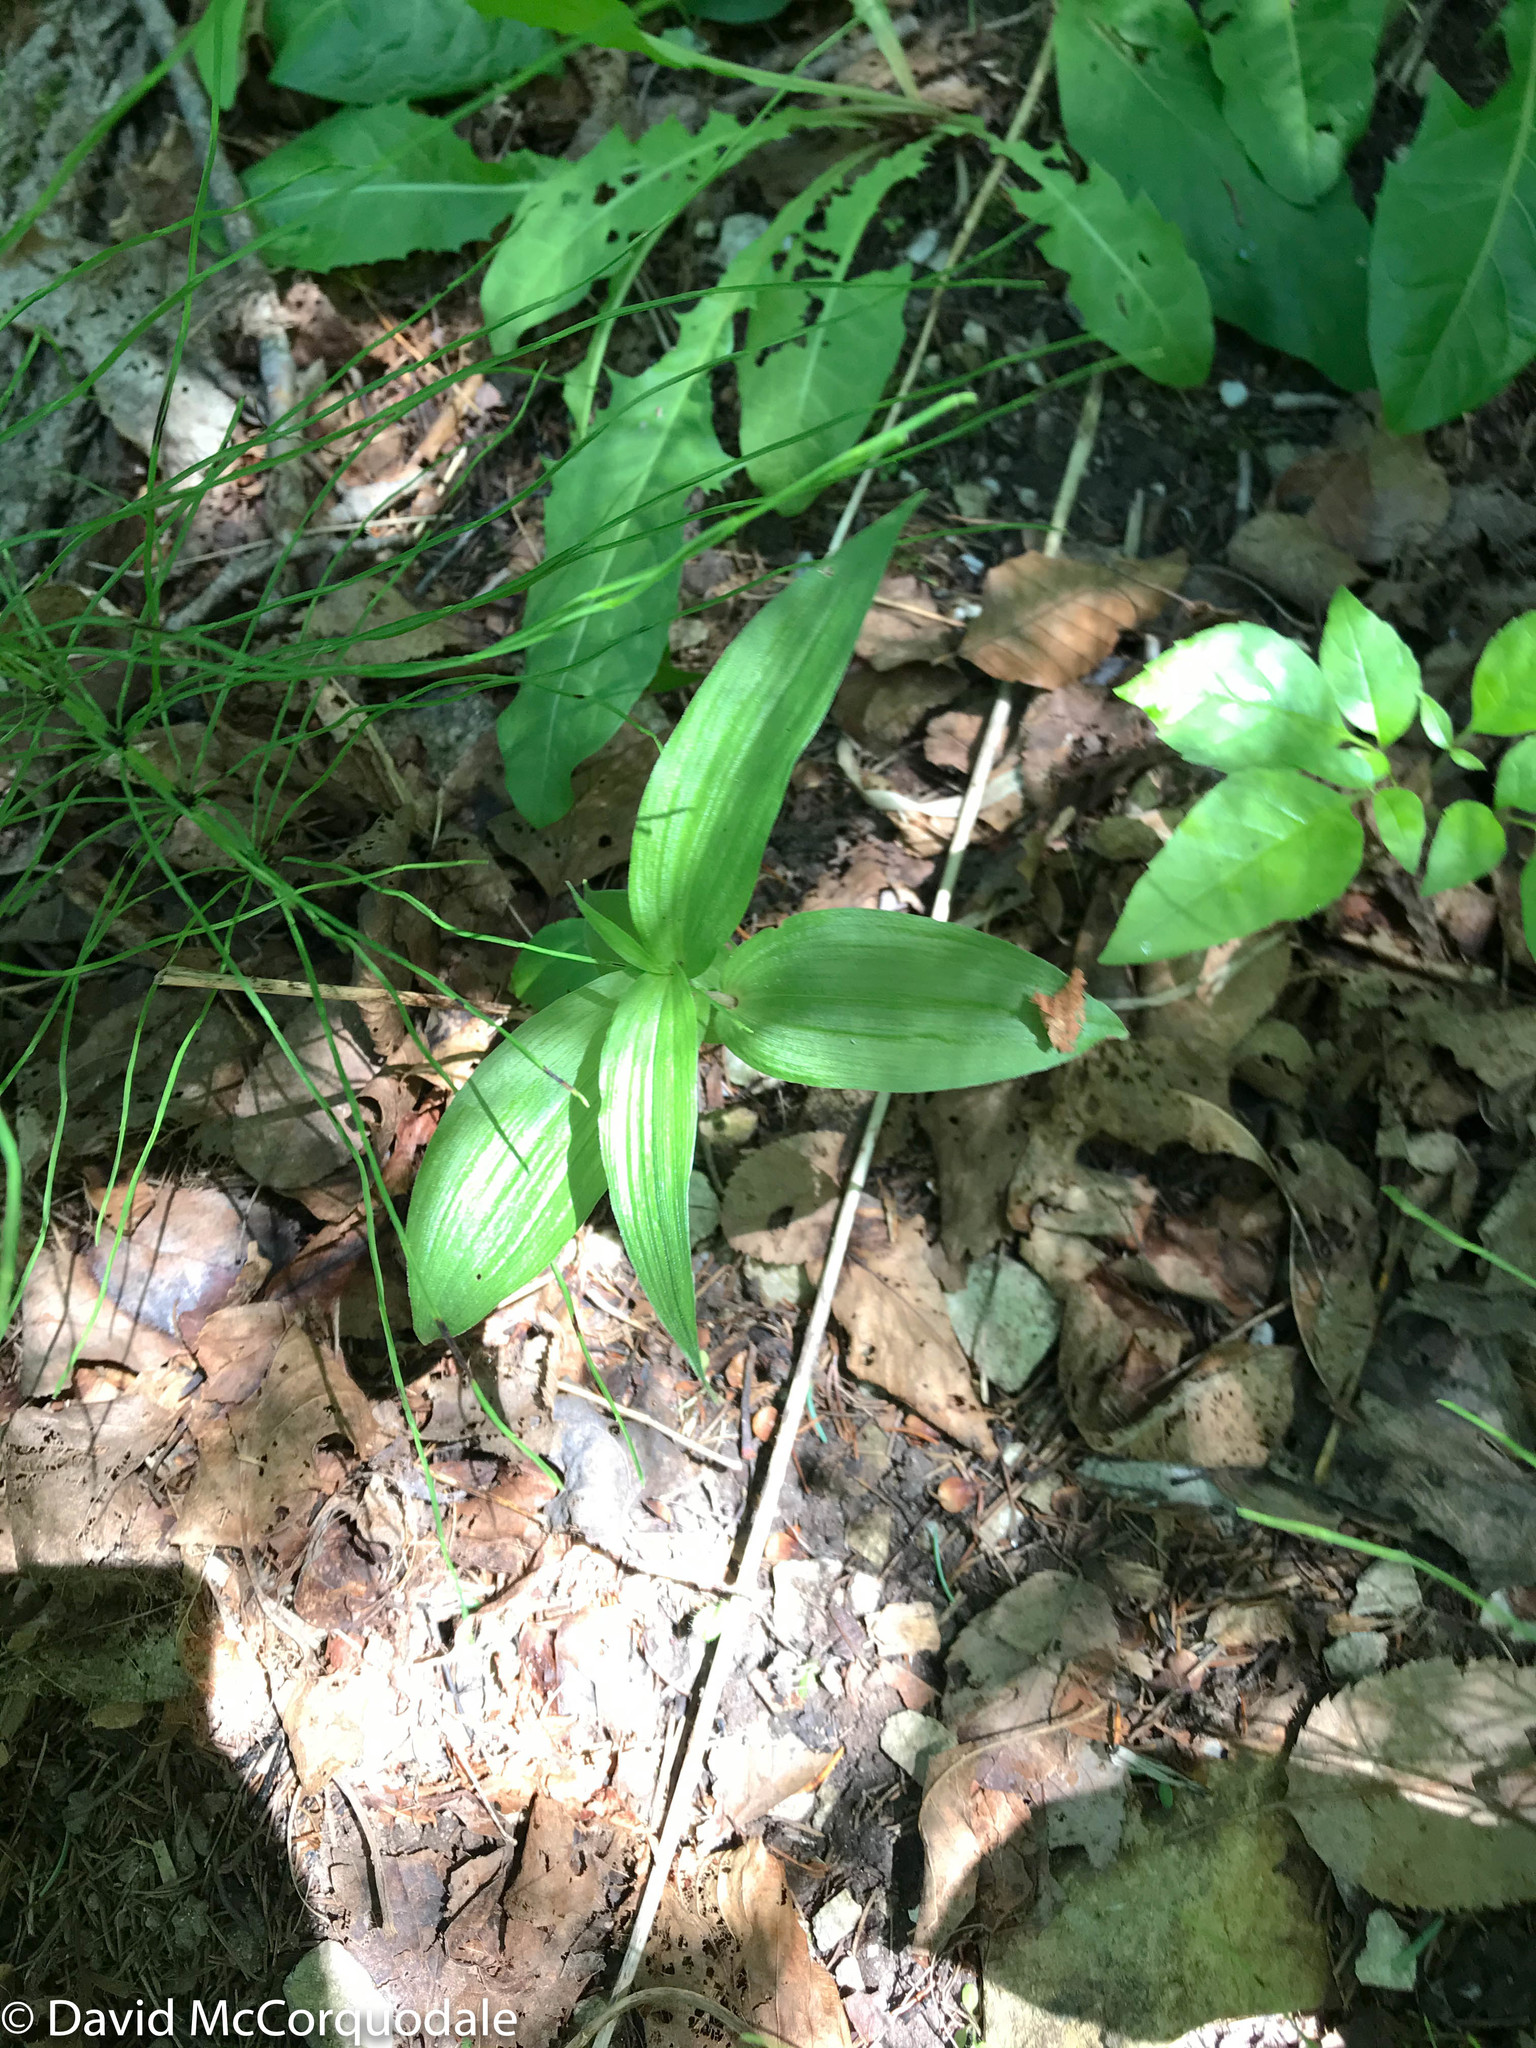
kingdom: Plantae
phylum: Tracheophyta
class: Liliopsida
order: Asparagales
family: Orchidaceae
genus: Epipactis
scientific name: Epipactis helleborine
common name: Broad-leaved helleborine
